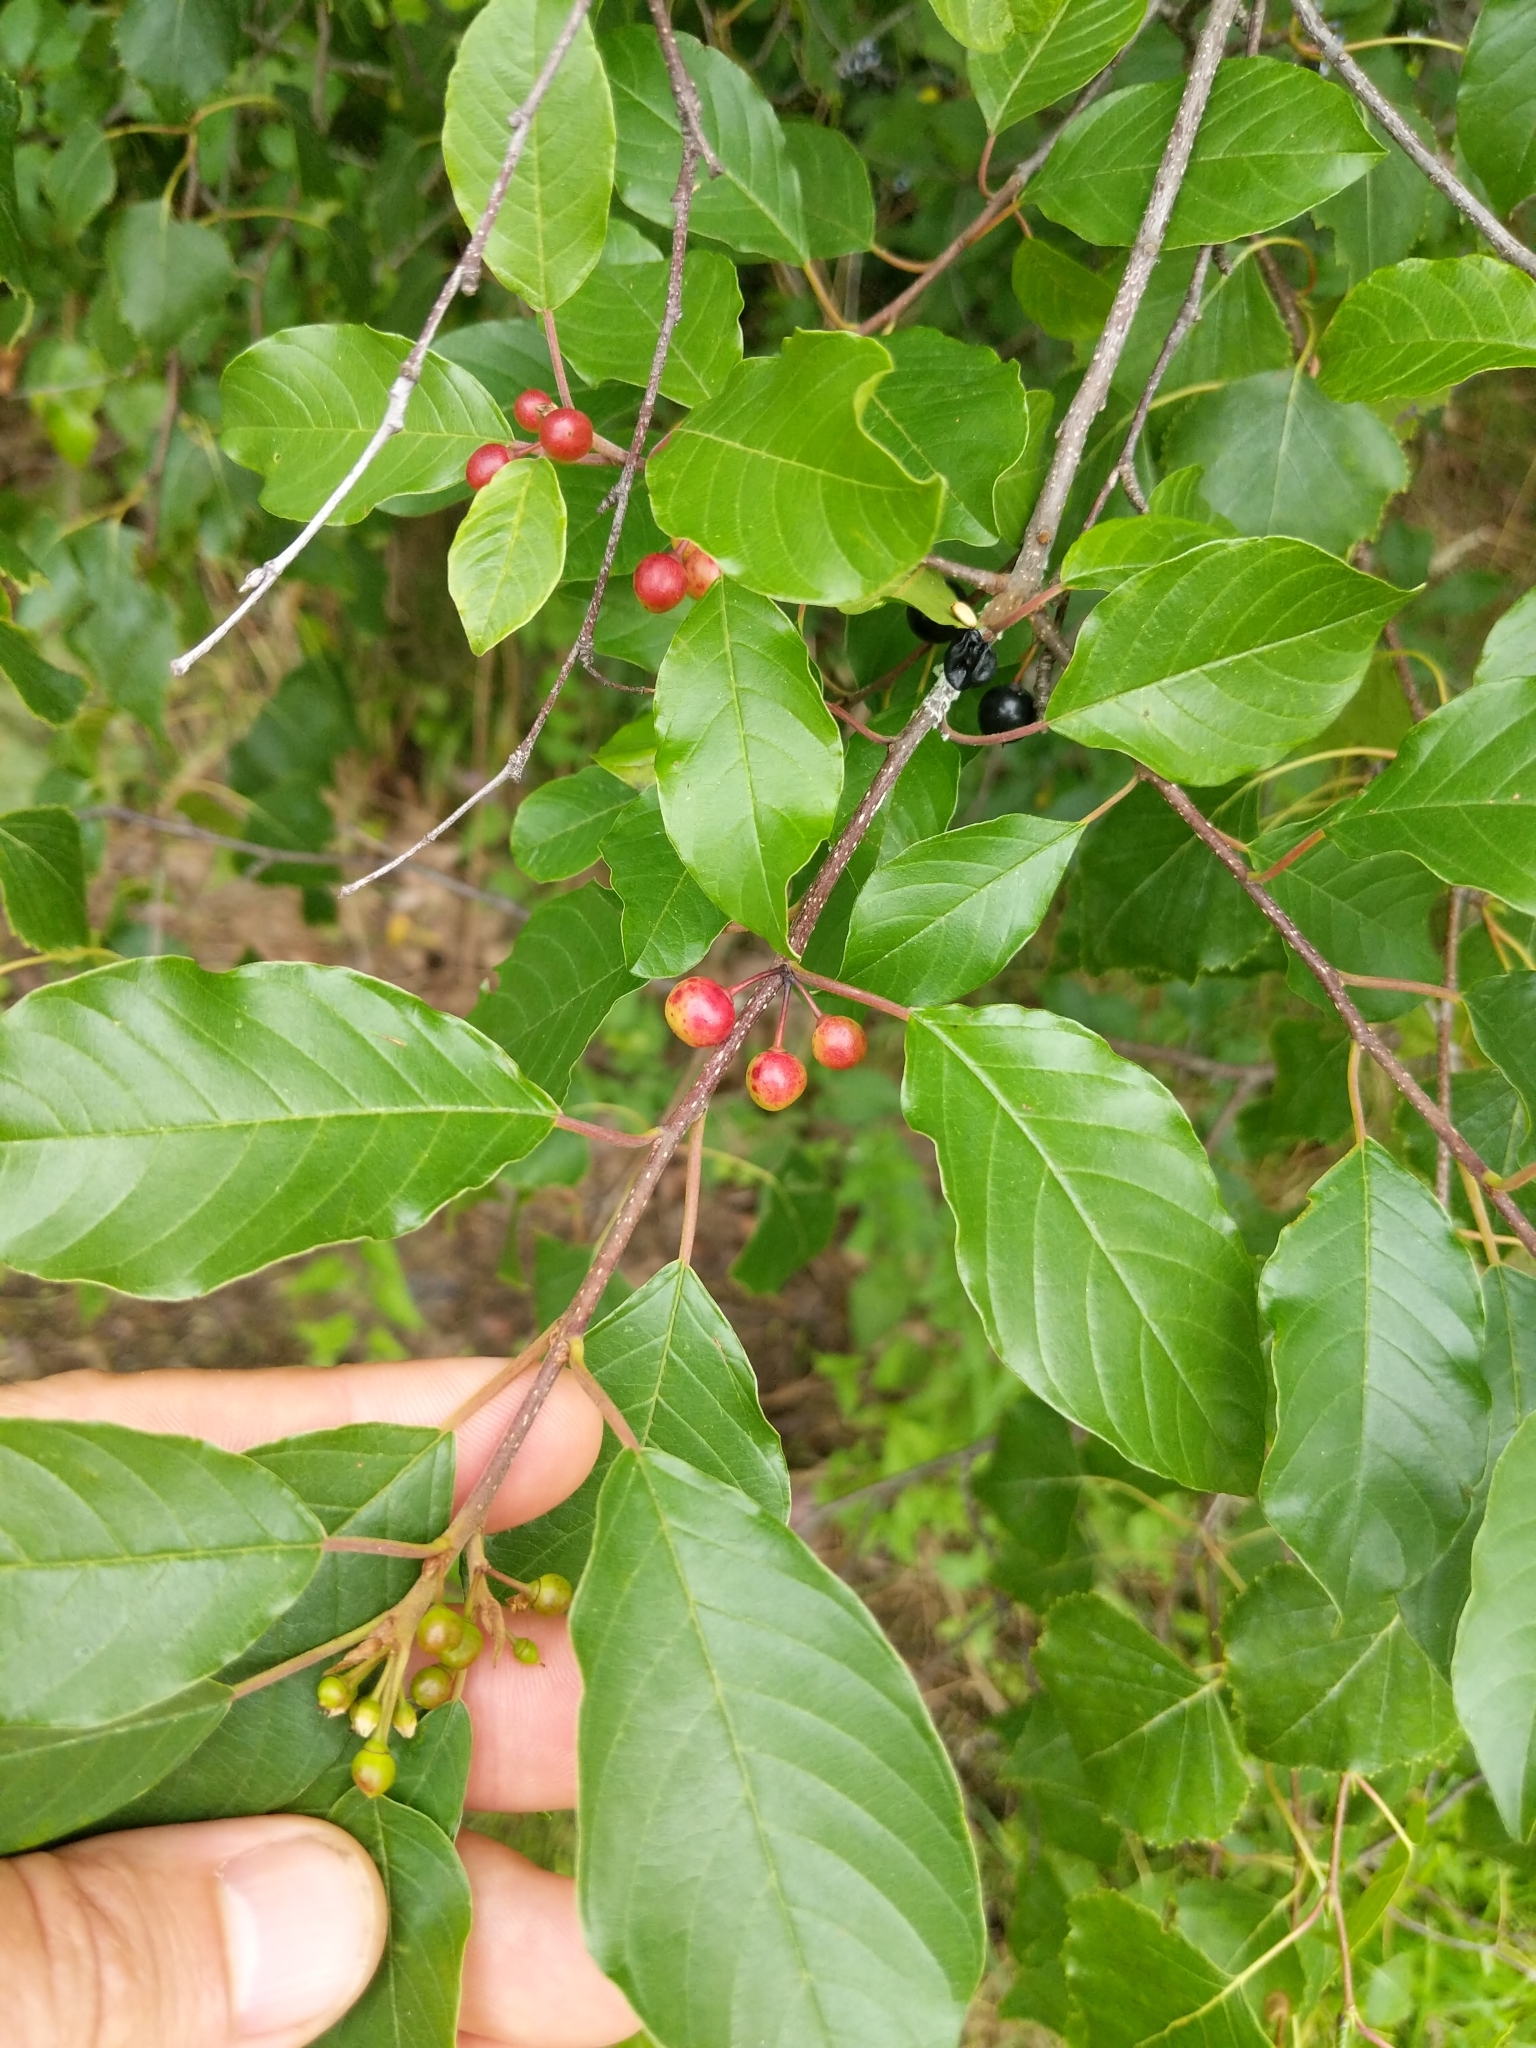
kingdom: Plantae
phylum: Tracheophyta
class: Magnoliopsida
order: Rosales
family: Rhamnaceae
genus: Frangula
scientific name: Frangula alnus
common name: Alder buckthorn
